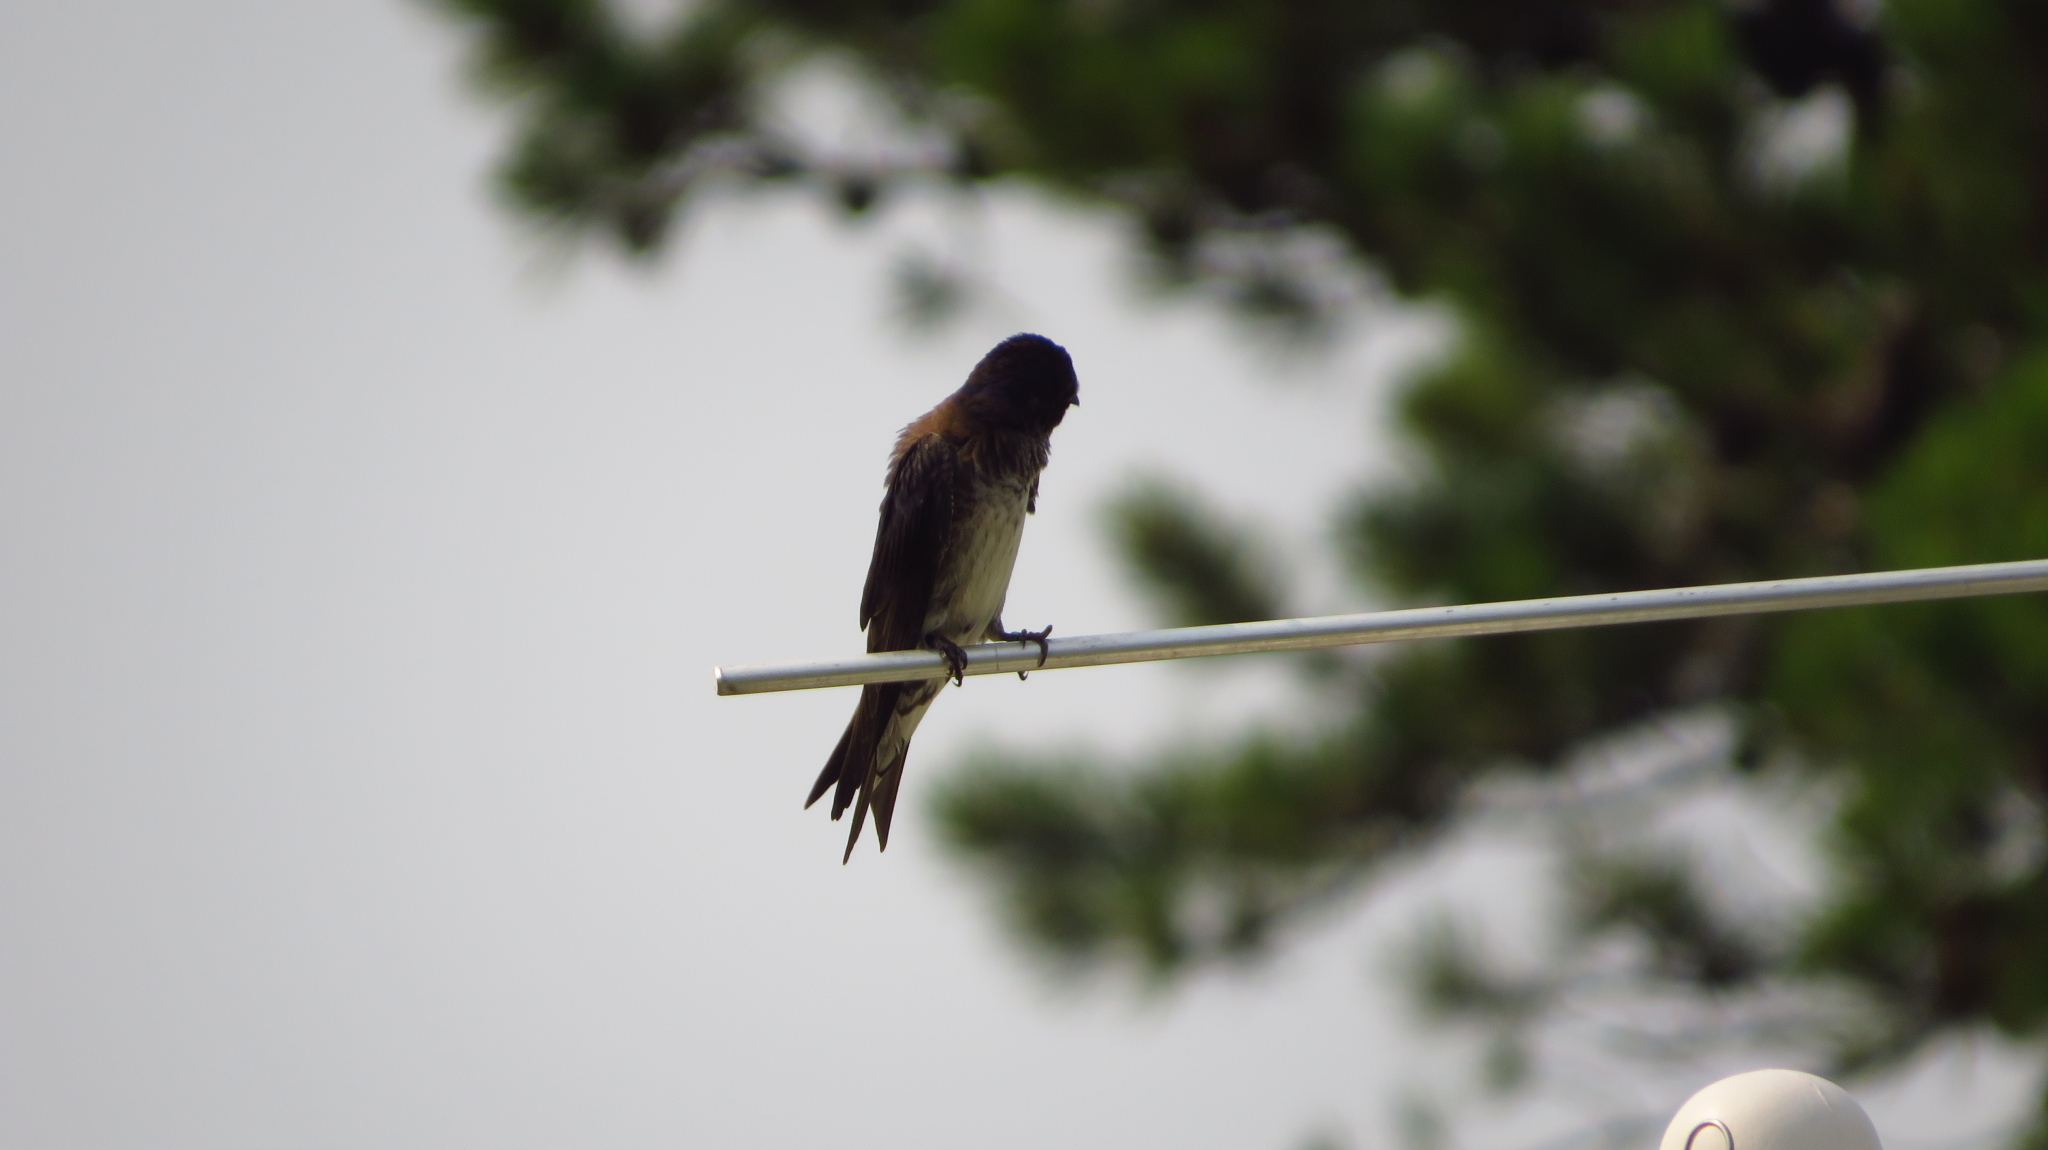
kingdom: Animalia
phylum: Chordata
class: Aves
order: Passeriformes
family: Hirundinidae
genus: Progne
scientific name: Progne subis
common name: Purple martin
